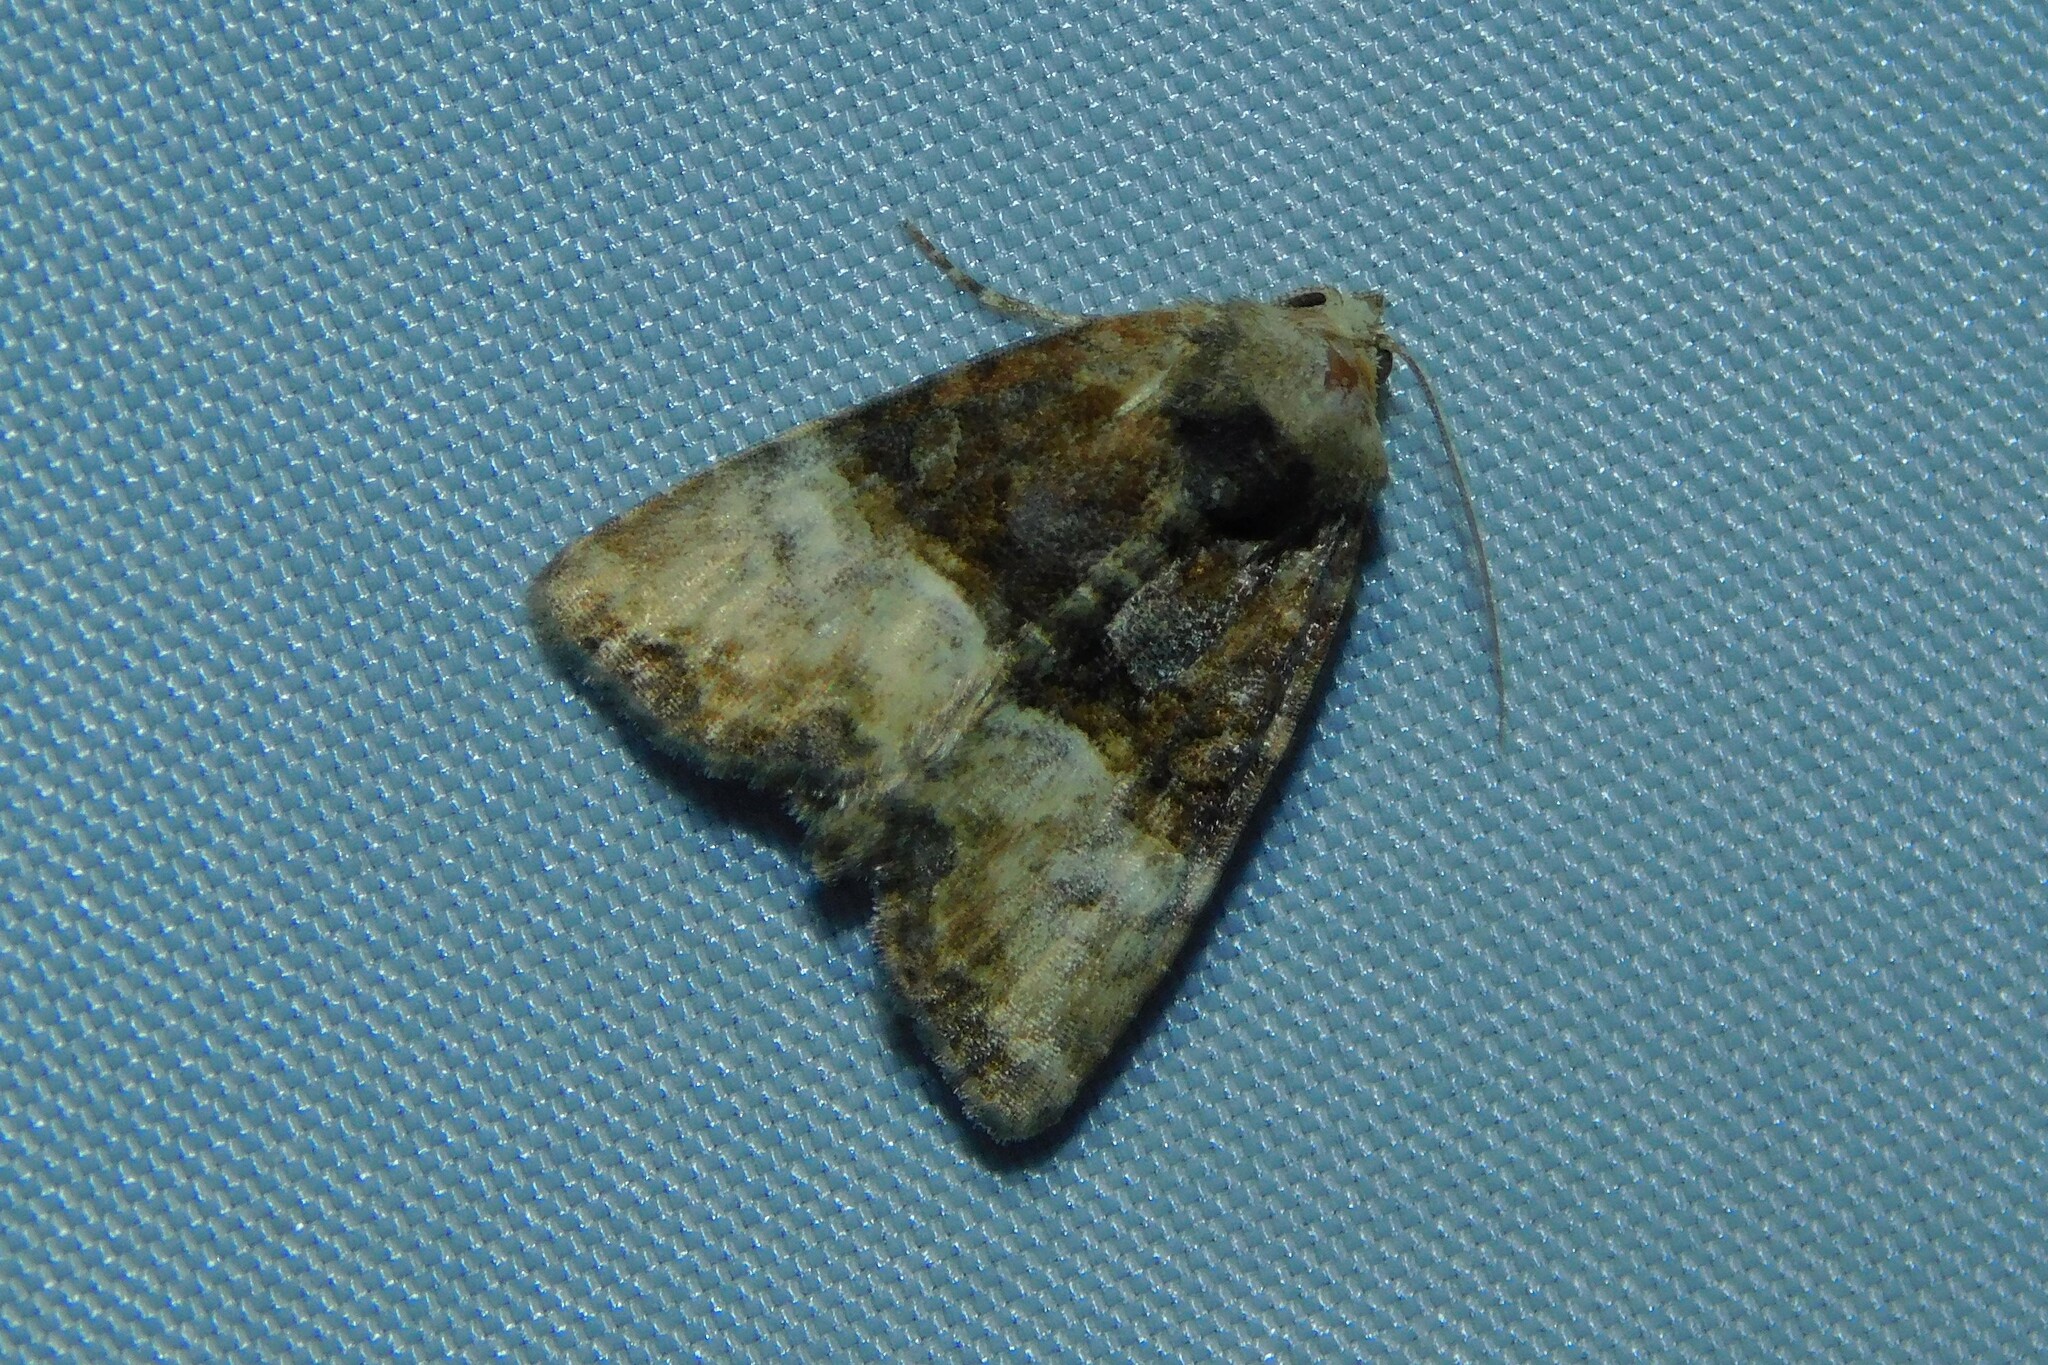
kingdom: Animalia
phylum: Arthropoda
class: Insecta
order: Lepidoptera
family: Noctuidae
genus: Mesoligia
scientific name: Mesoligia furuncula
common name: Cloaked minor
